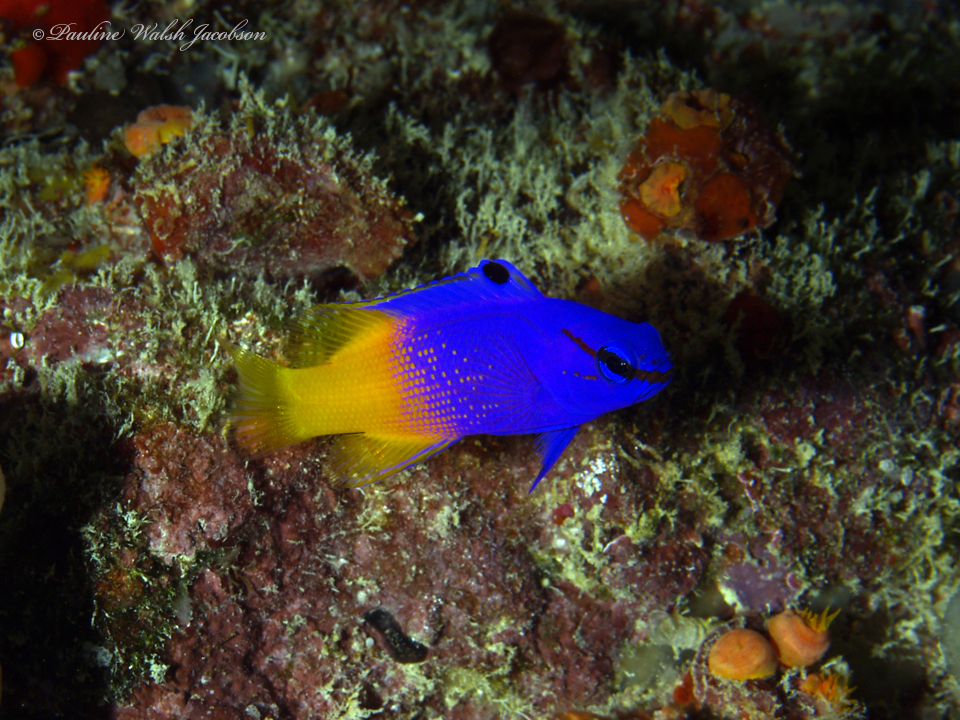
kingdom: Animalia
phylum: Chordata
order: Perciformes
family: Grammatidae
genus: Gramma
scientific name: Gramma loreto
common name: Fairy basslet
